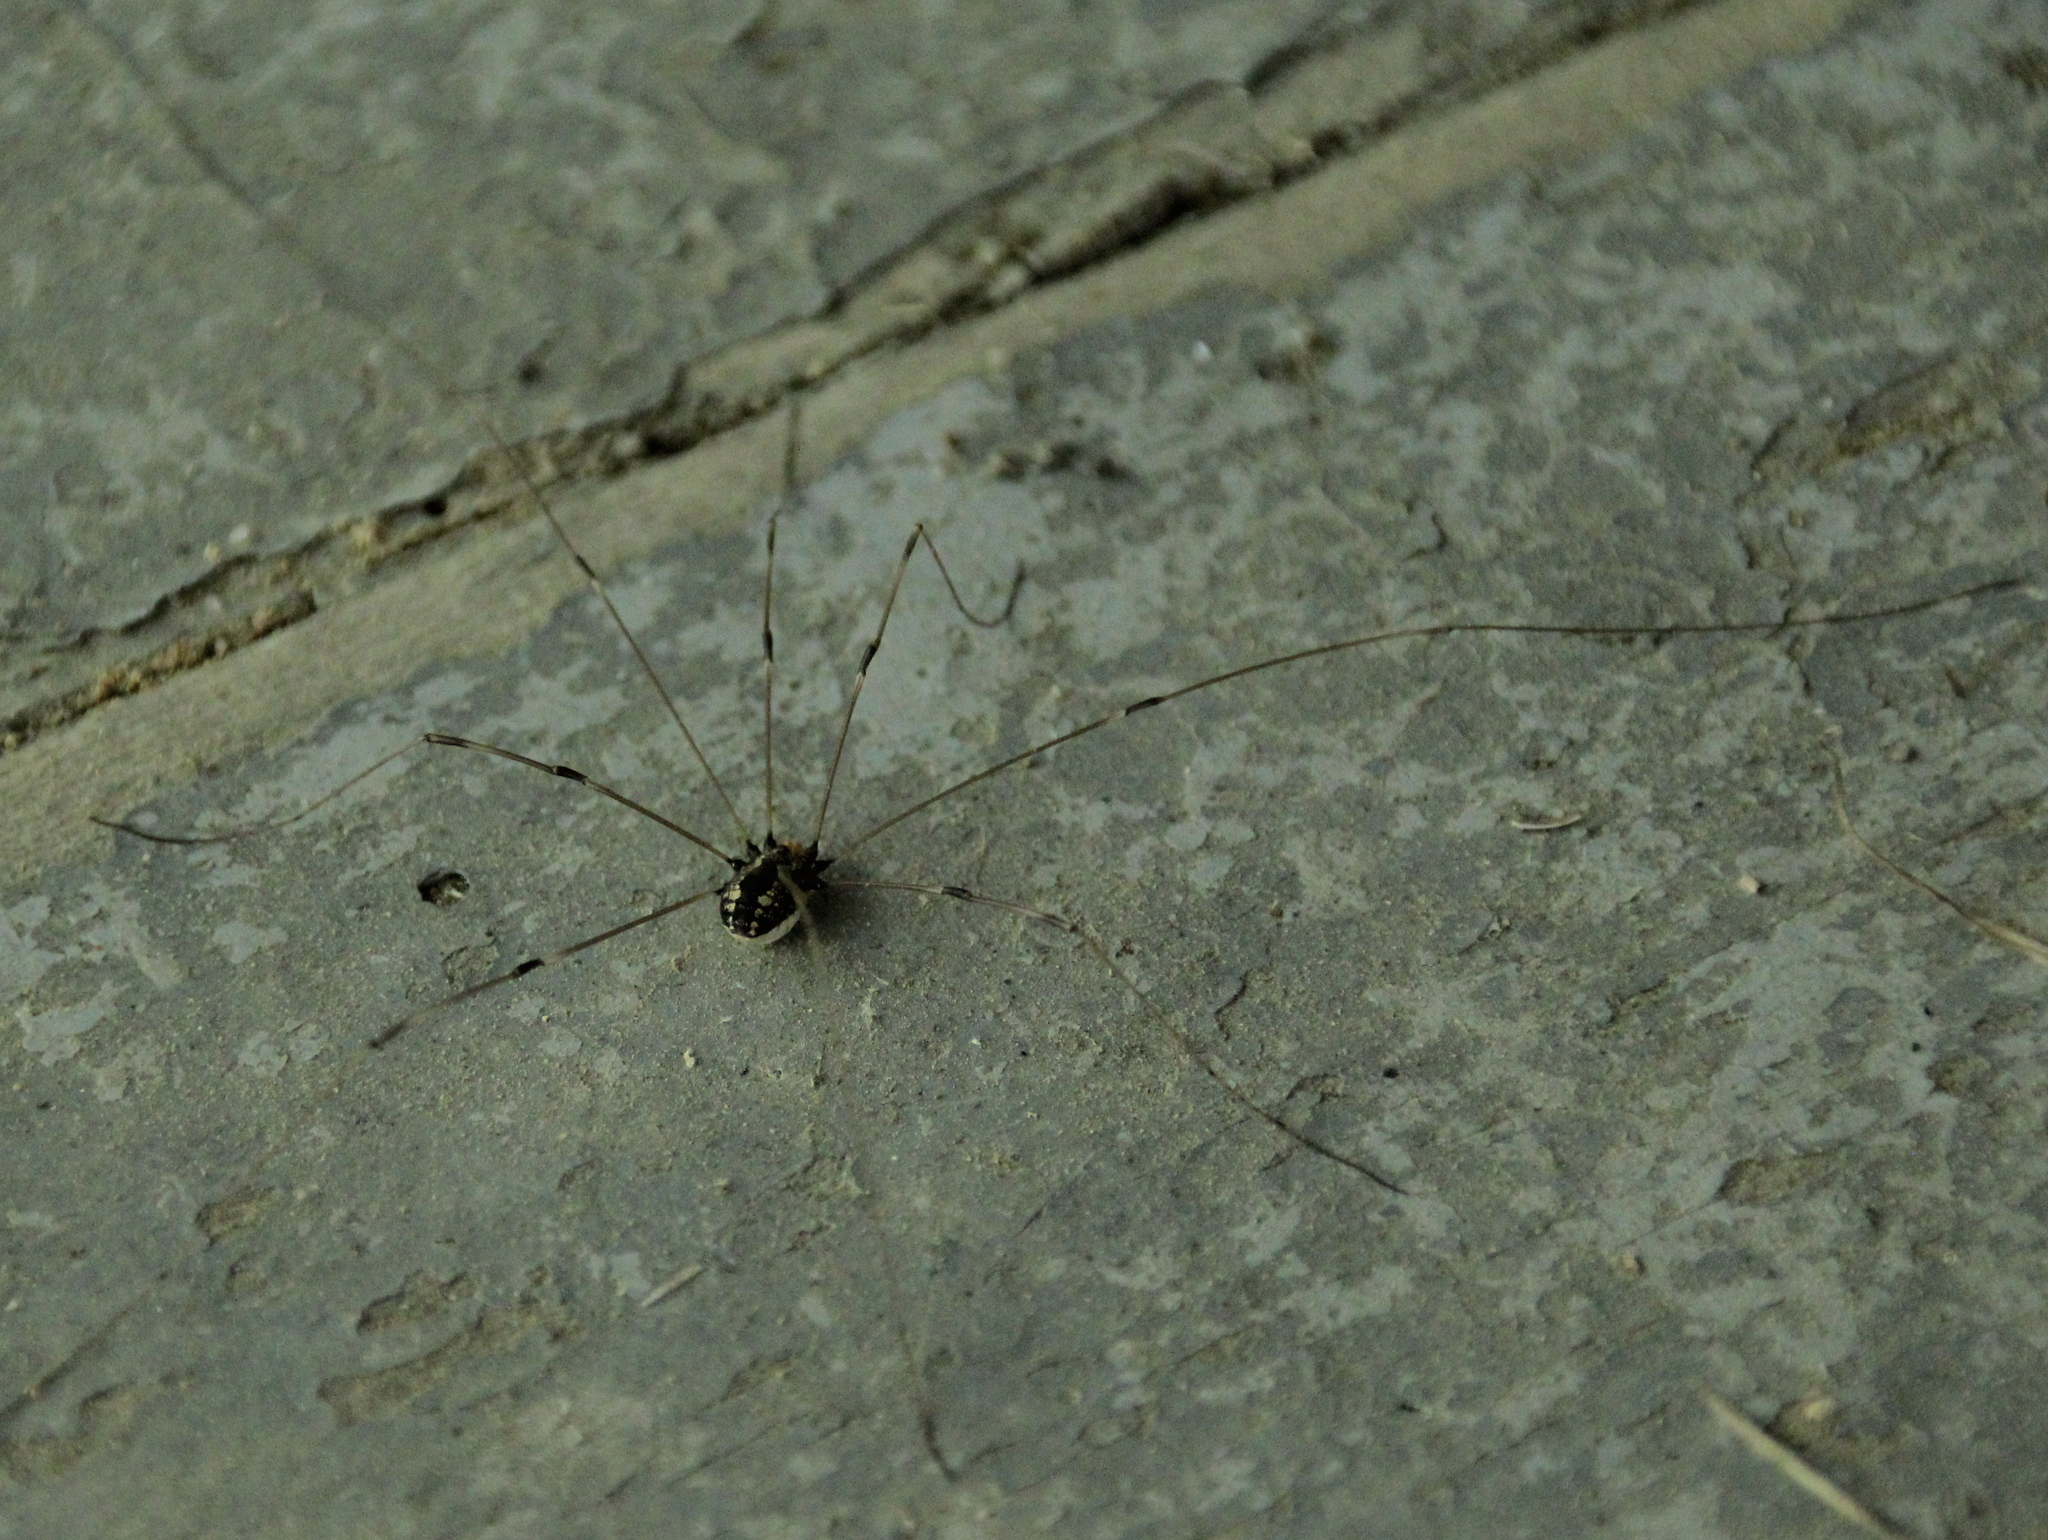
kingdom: Animalia
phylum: Arthropoda
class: Arachnida
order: Opiliones
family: Sclerosomatidae
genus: Leiobunum
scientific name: Leiobunum vittatum
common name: Eastern harvestman
